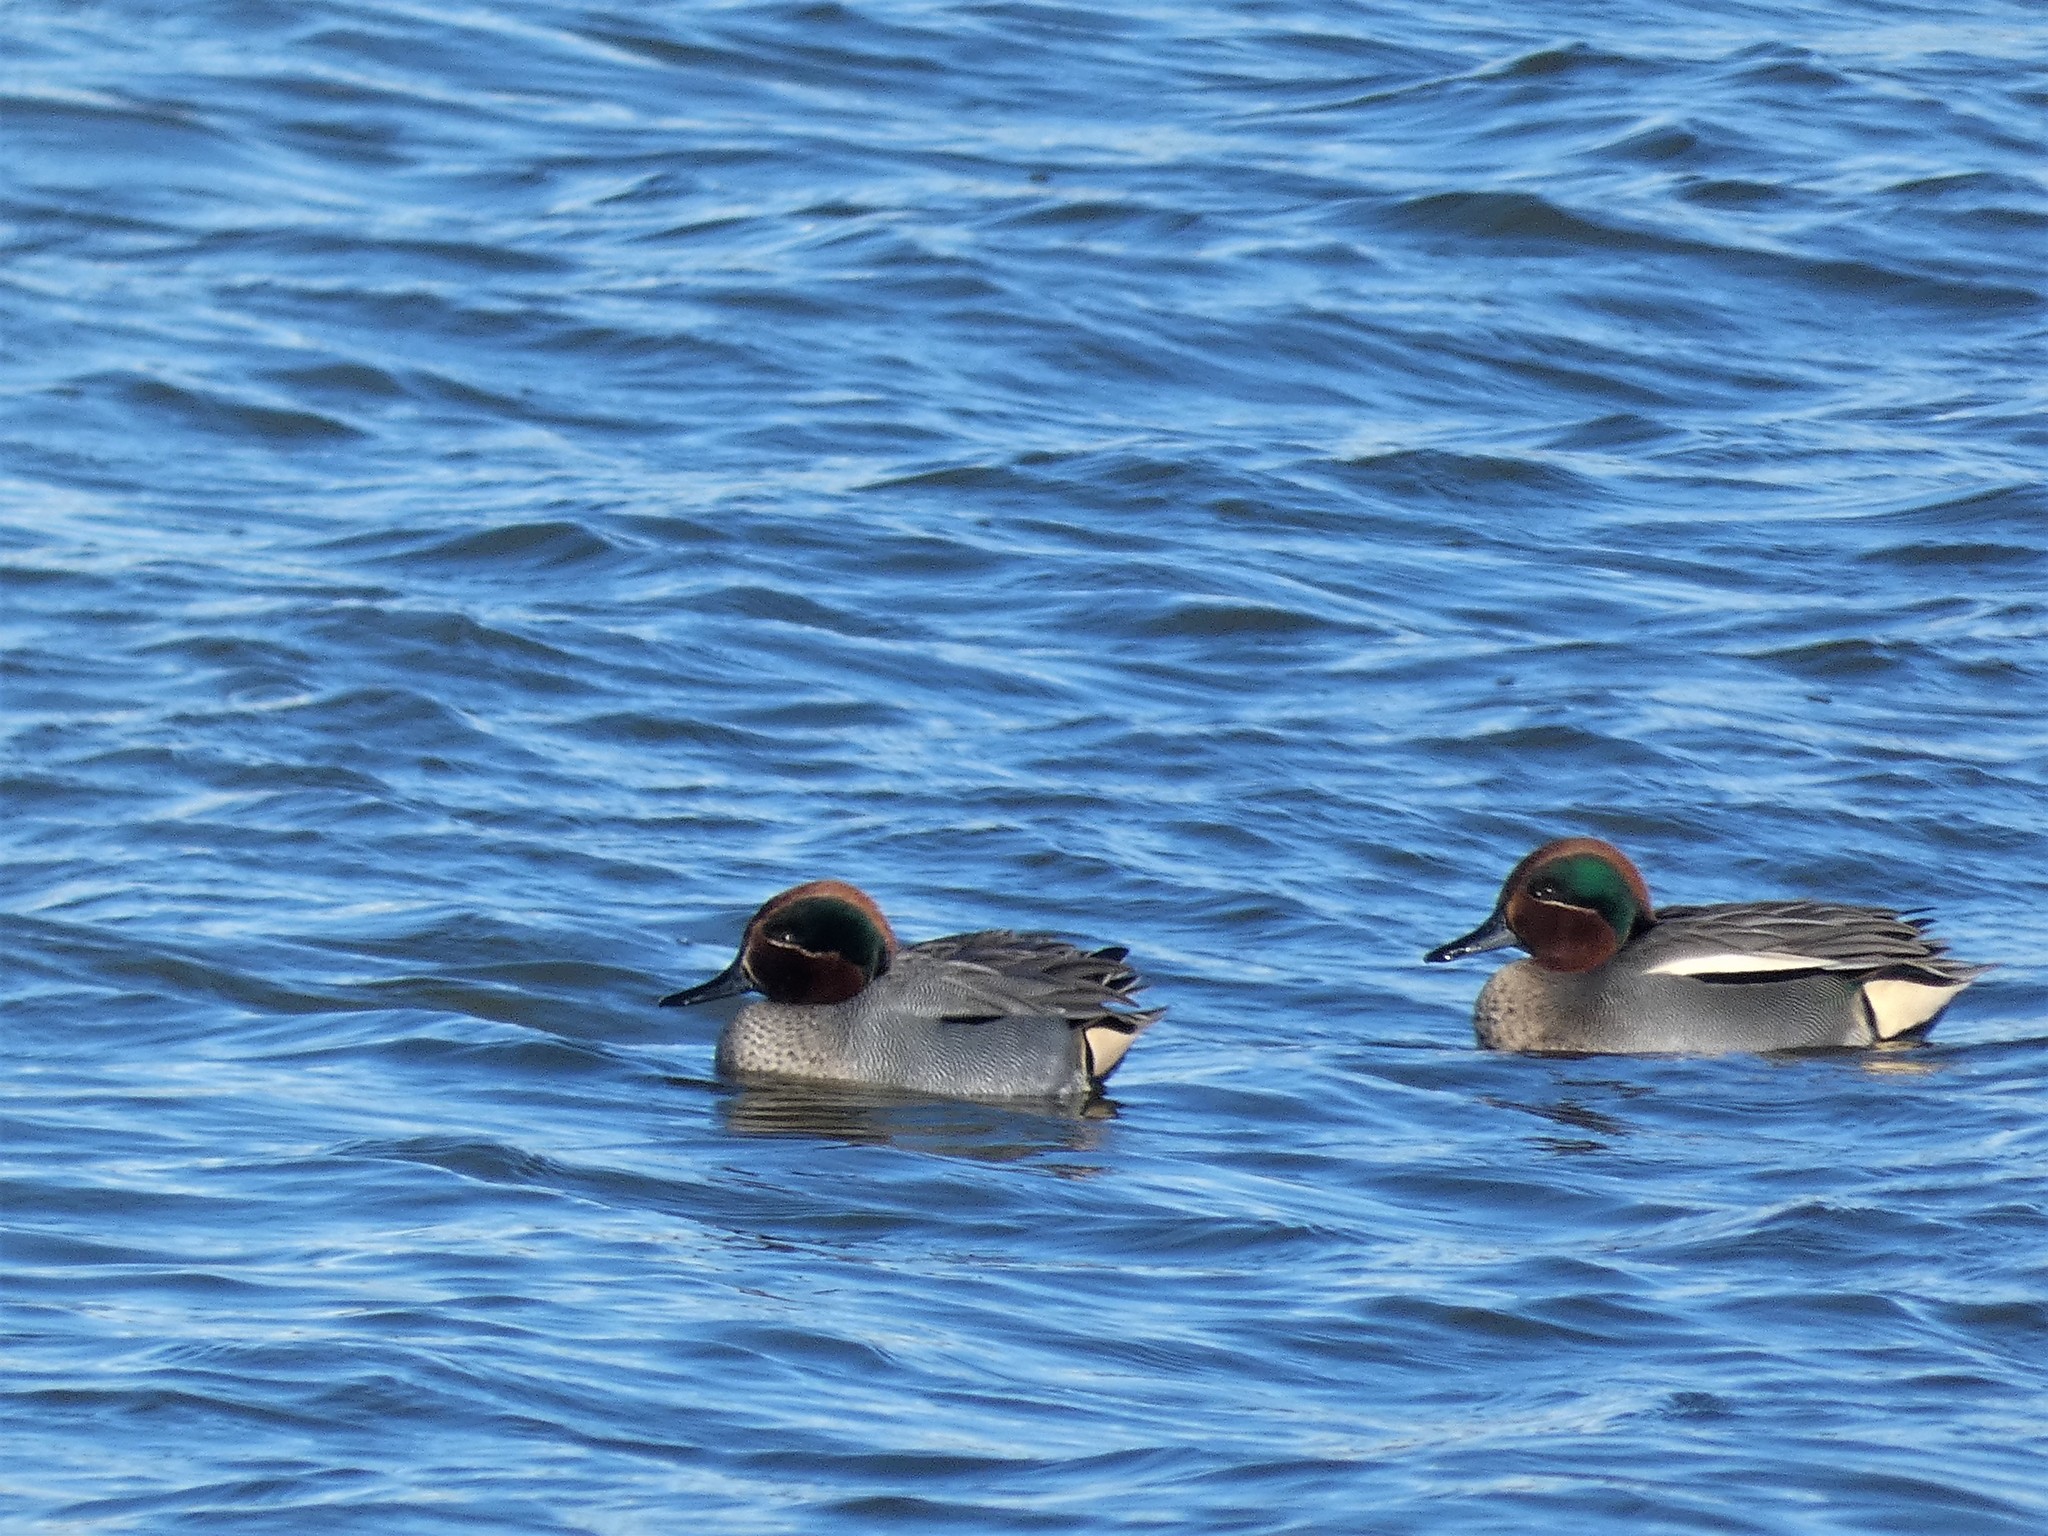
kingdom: Animalia
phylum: Chordata
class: Aves
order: Anseriformes
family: Anatidae
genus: Anas
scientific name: Anas crecca
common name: Eurasian teal
